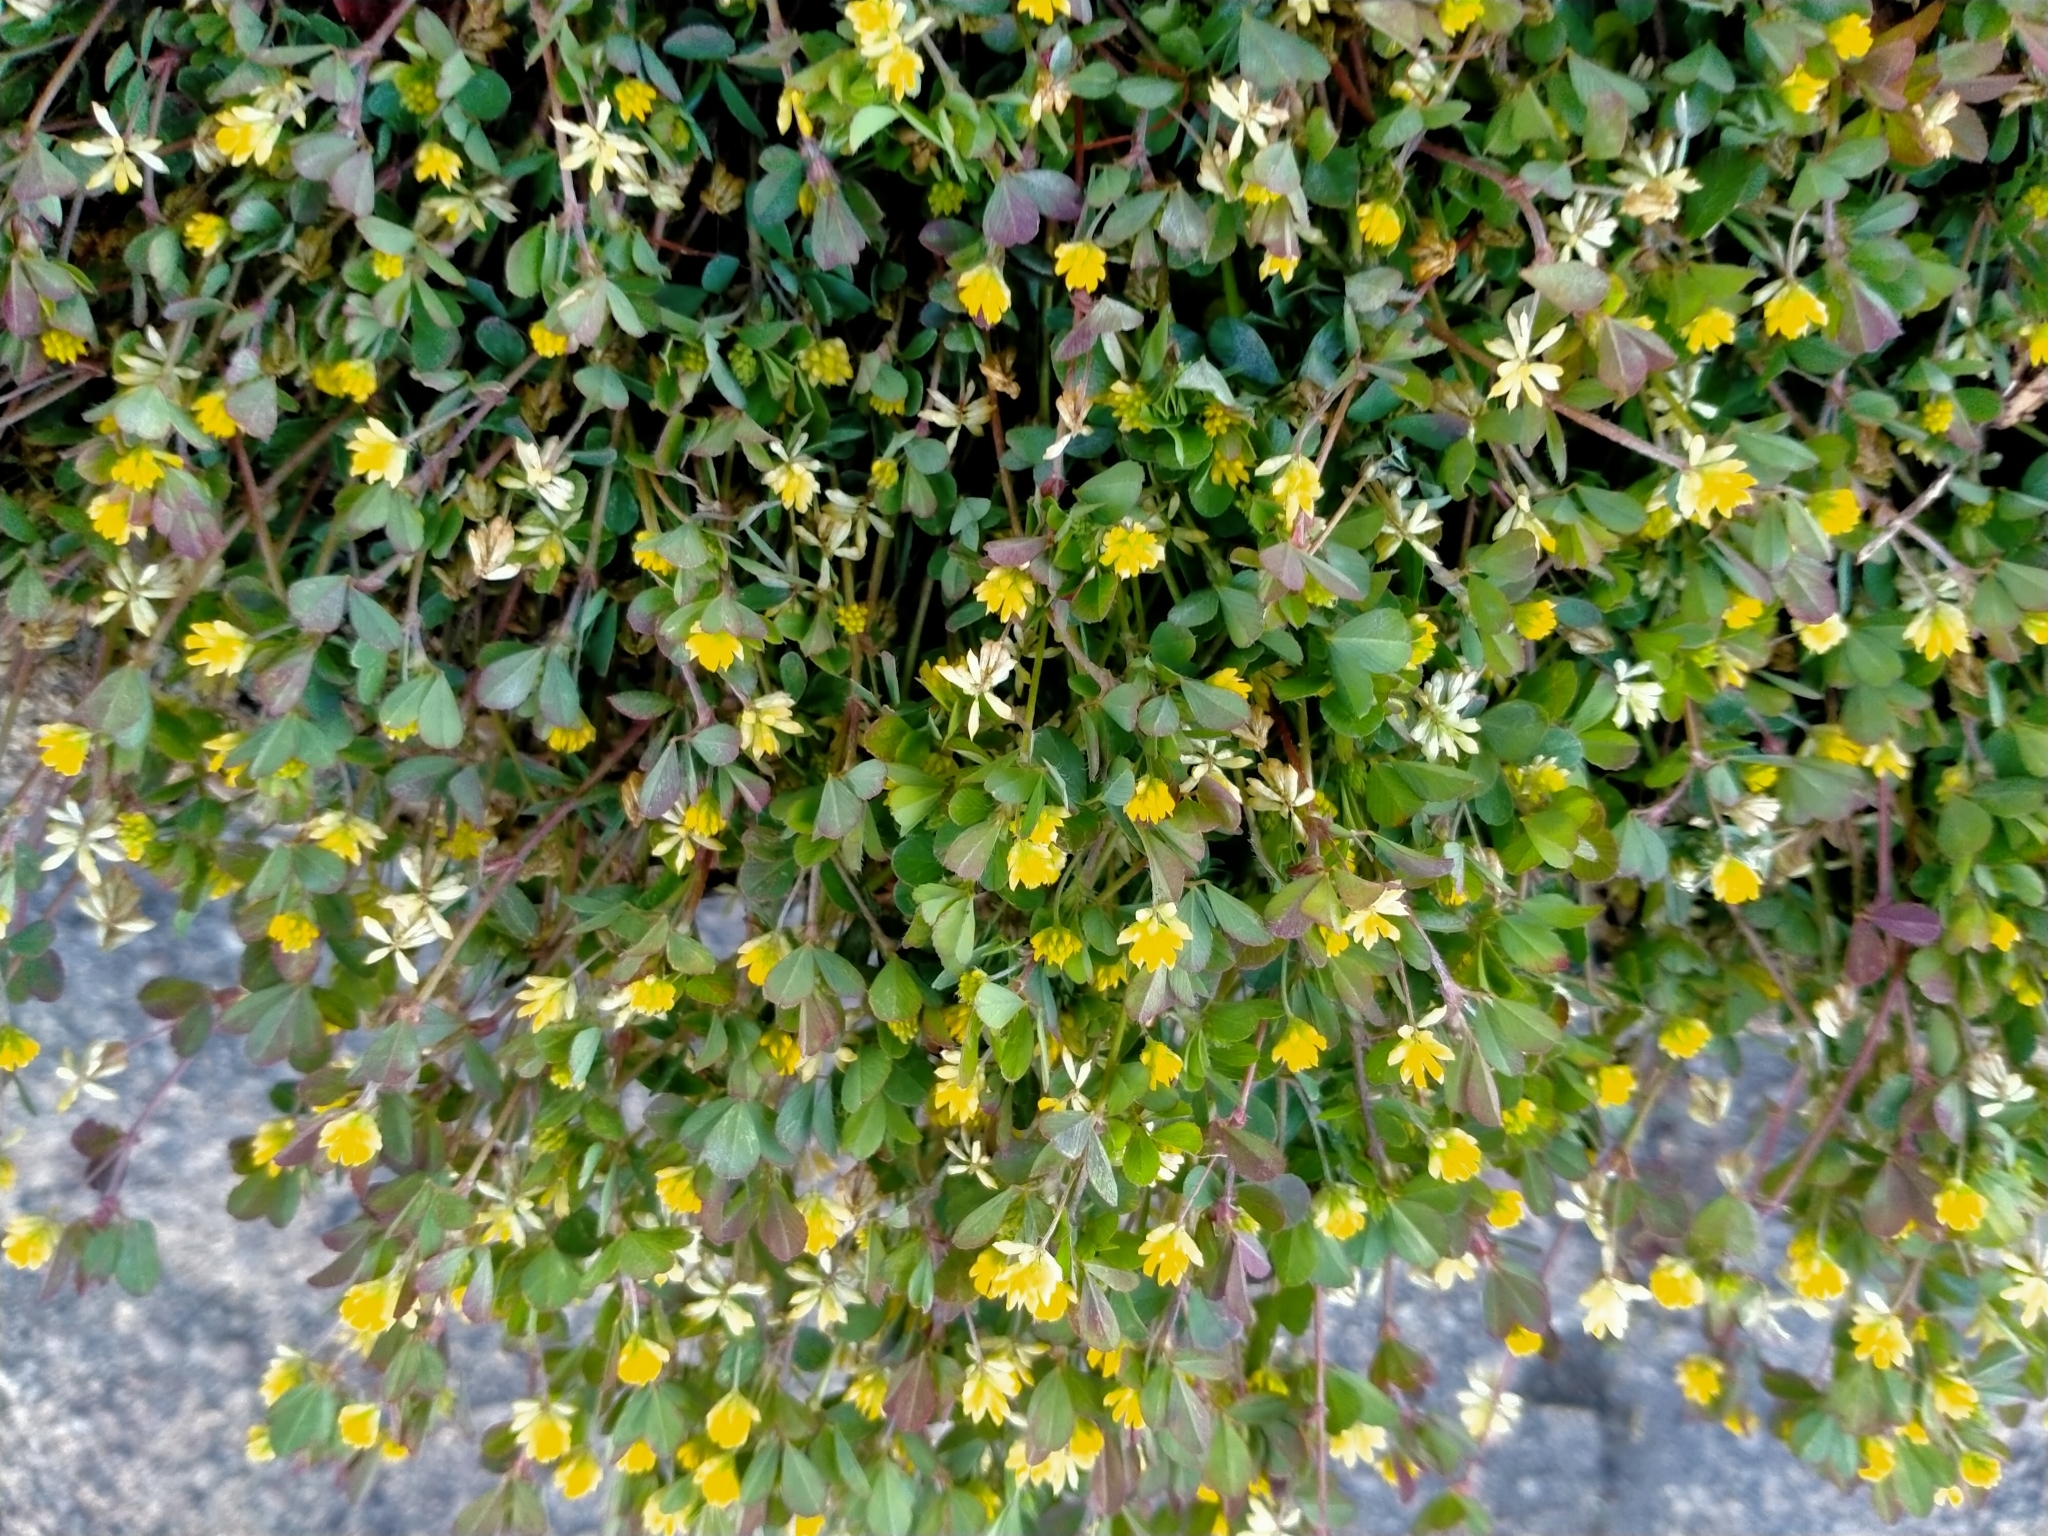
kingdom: Plantae
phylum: Tracheophyta
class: Magnoliopsida
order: Fabales
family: Fabaceae
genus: Trifolium
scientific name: Trifolium dubium
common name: Suckling clover
